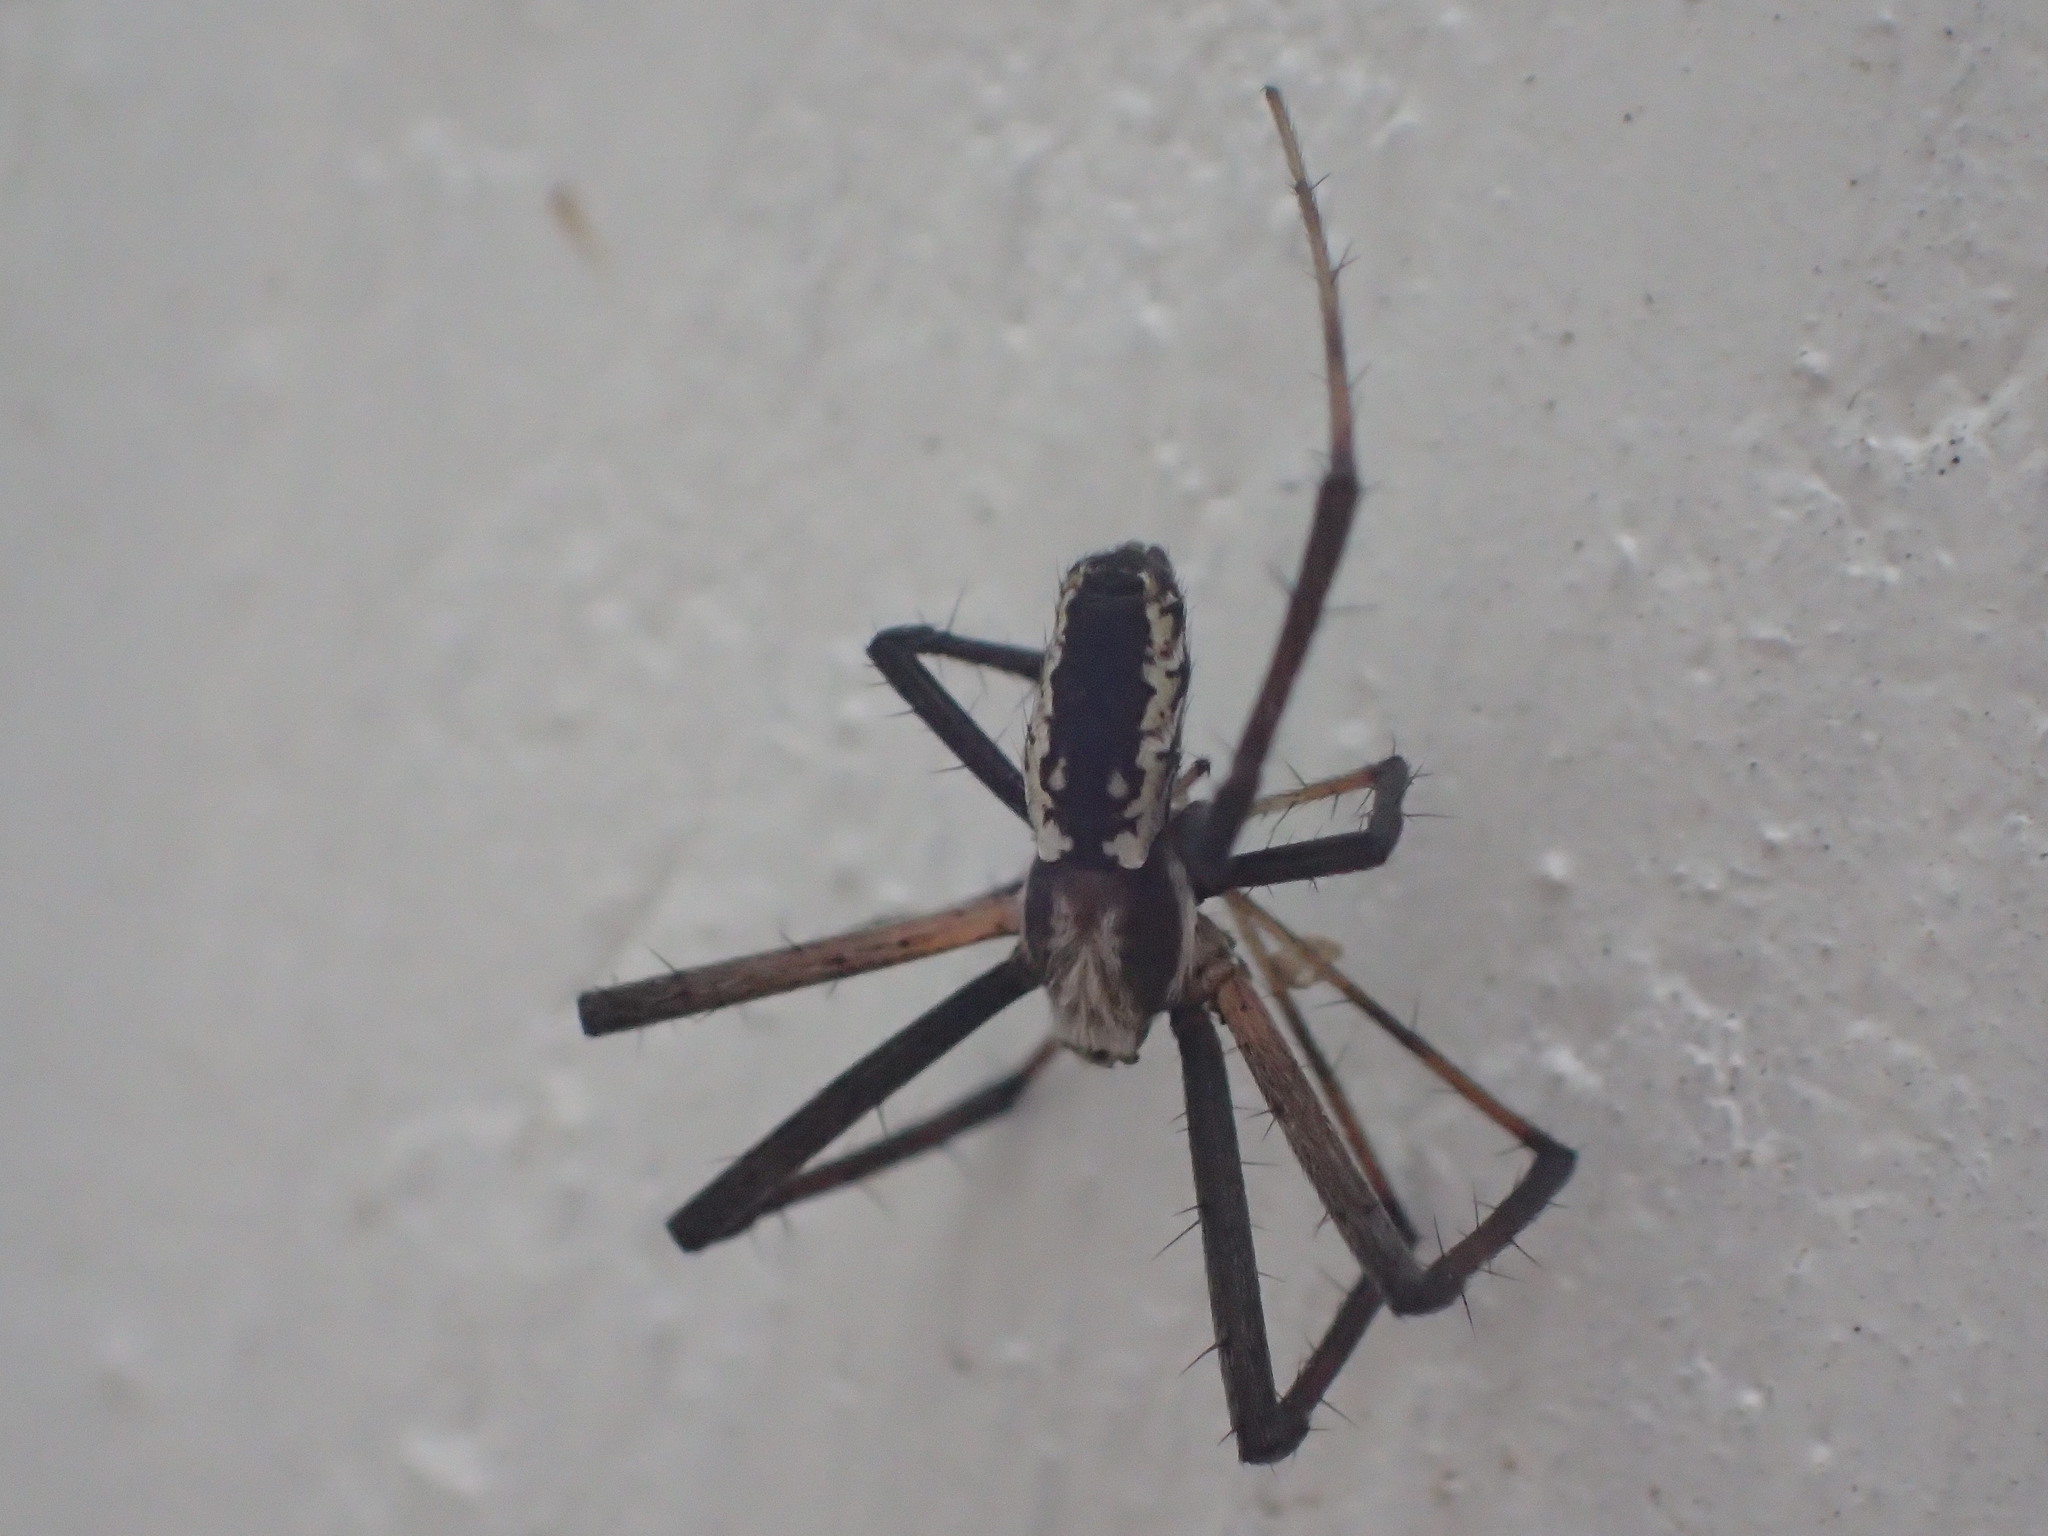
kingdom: Animalia
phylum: Arthropoda
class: Arachnida
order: Araneae
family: Araneidae
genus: Argiope
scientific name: Argiope aurantia
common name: Orb weavers
